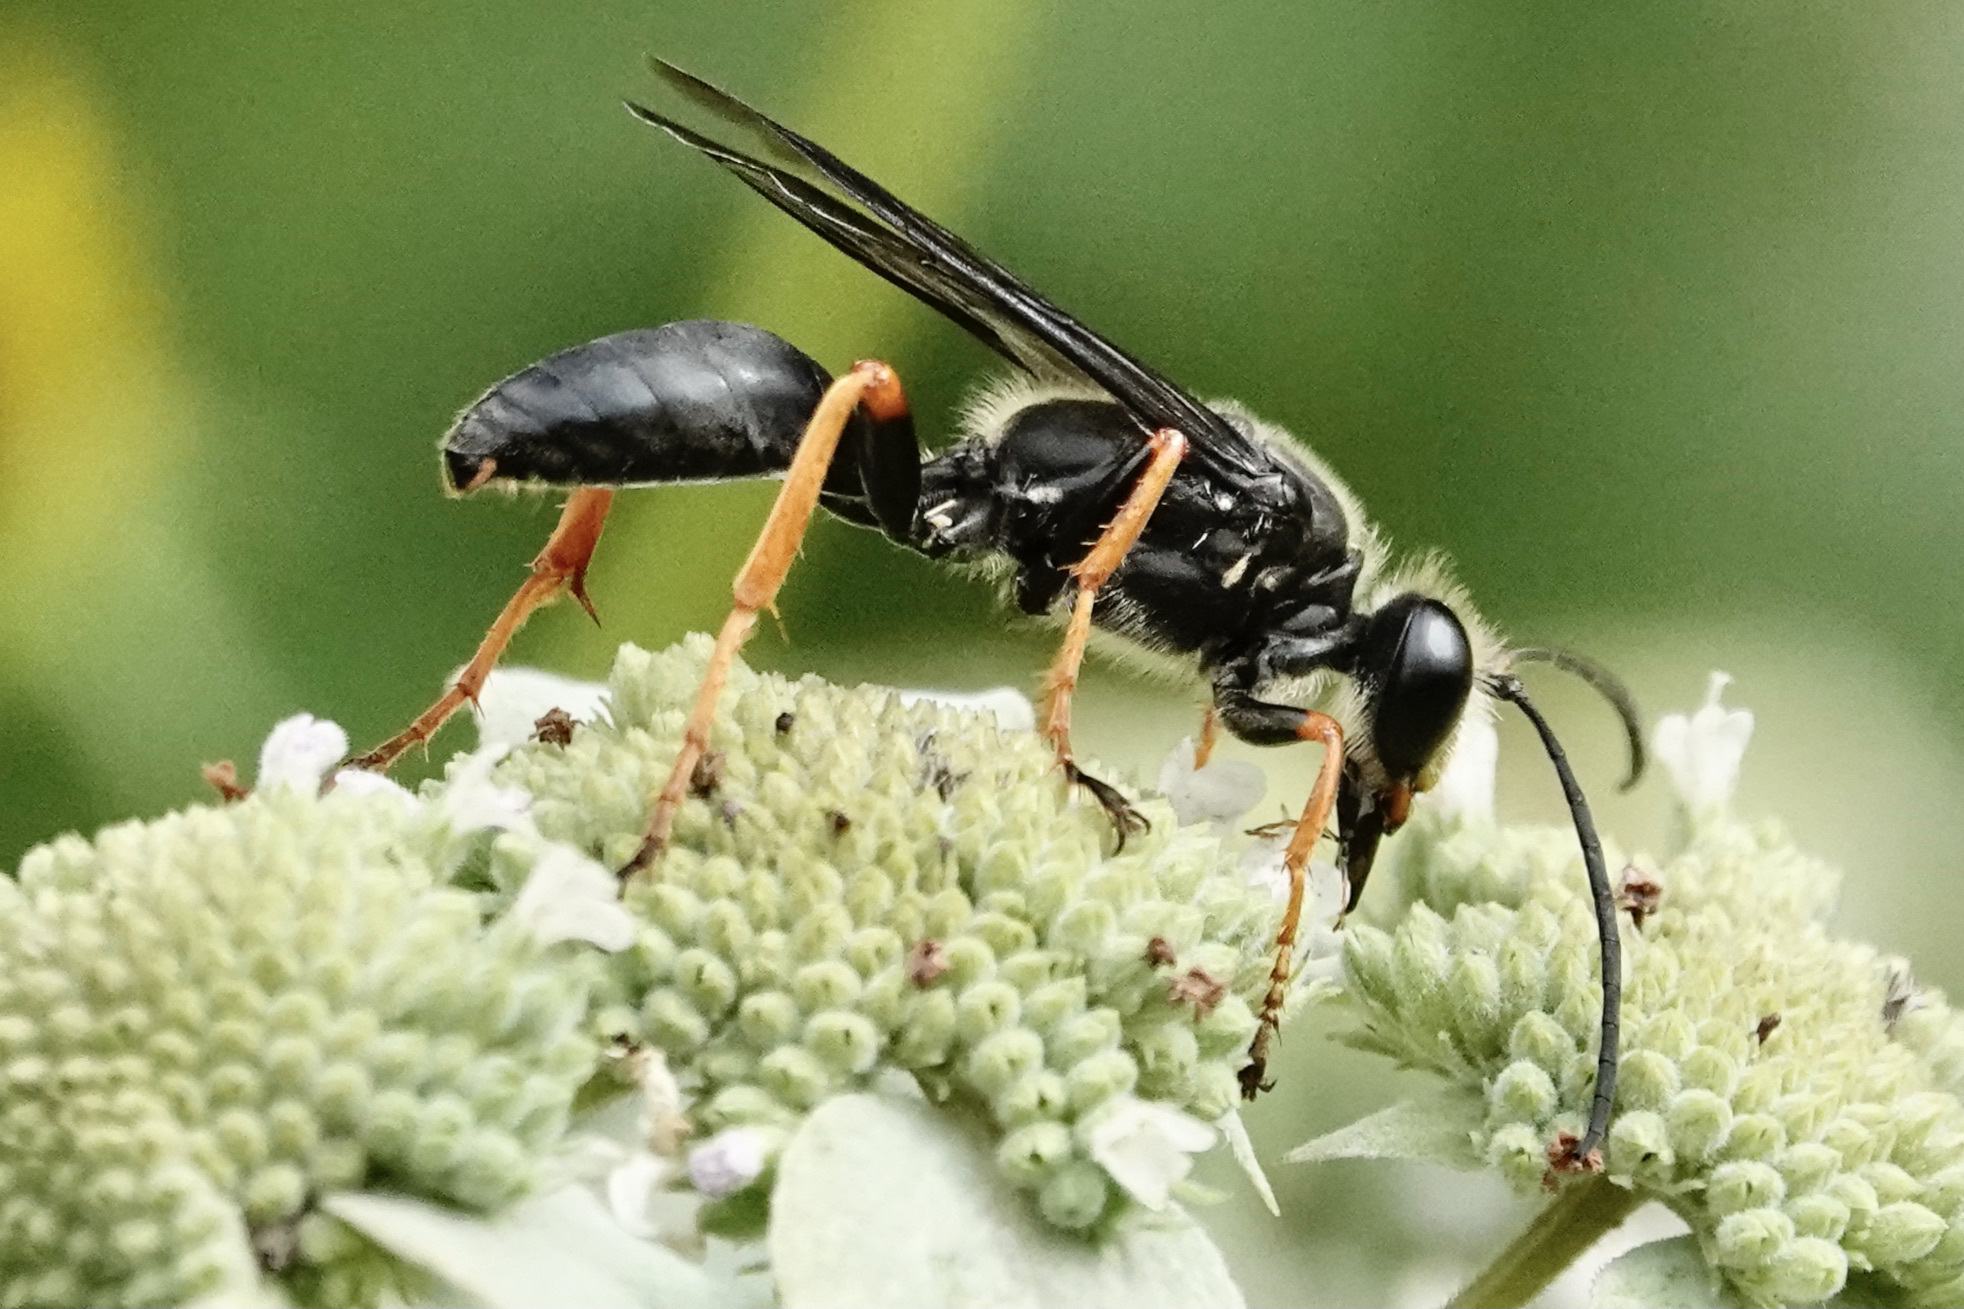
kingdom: Animalia
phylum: Arthropoda
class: Insecta
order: Hymenoptera
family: Sphecidae
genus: Sphex
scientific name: Sphex nudus
